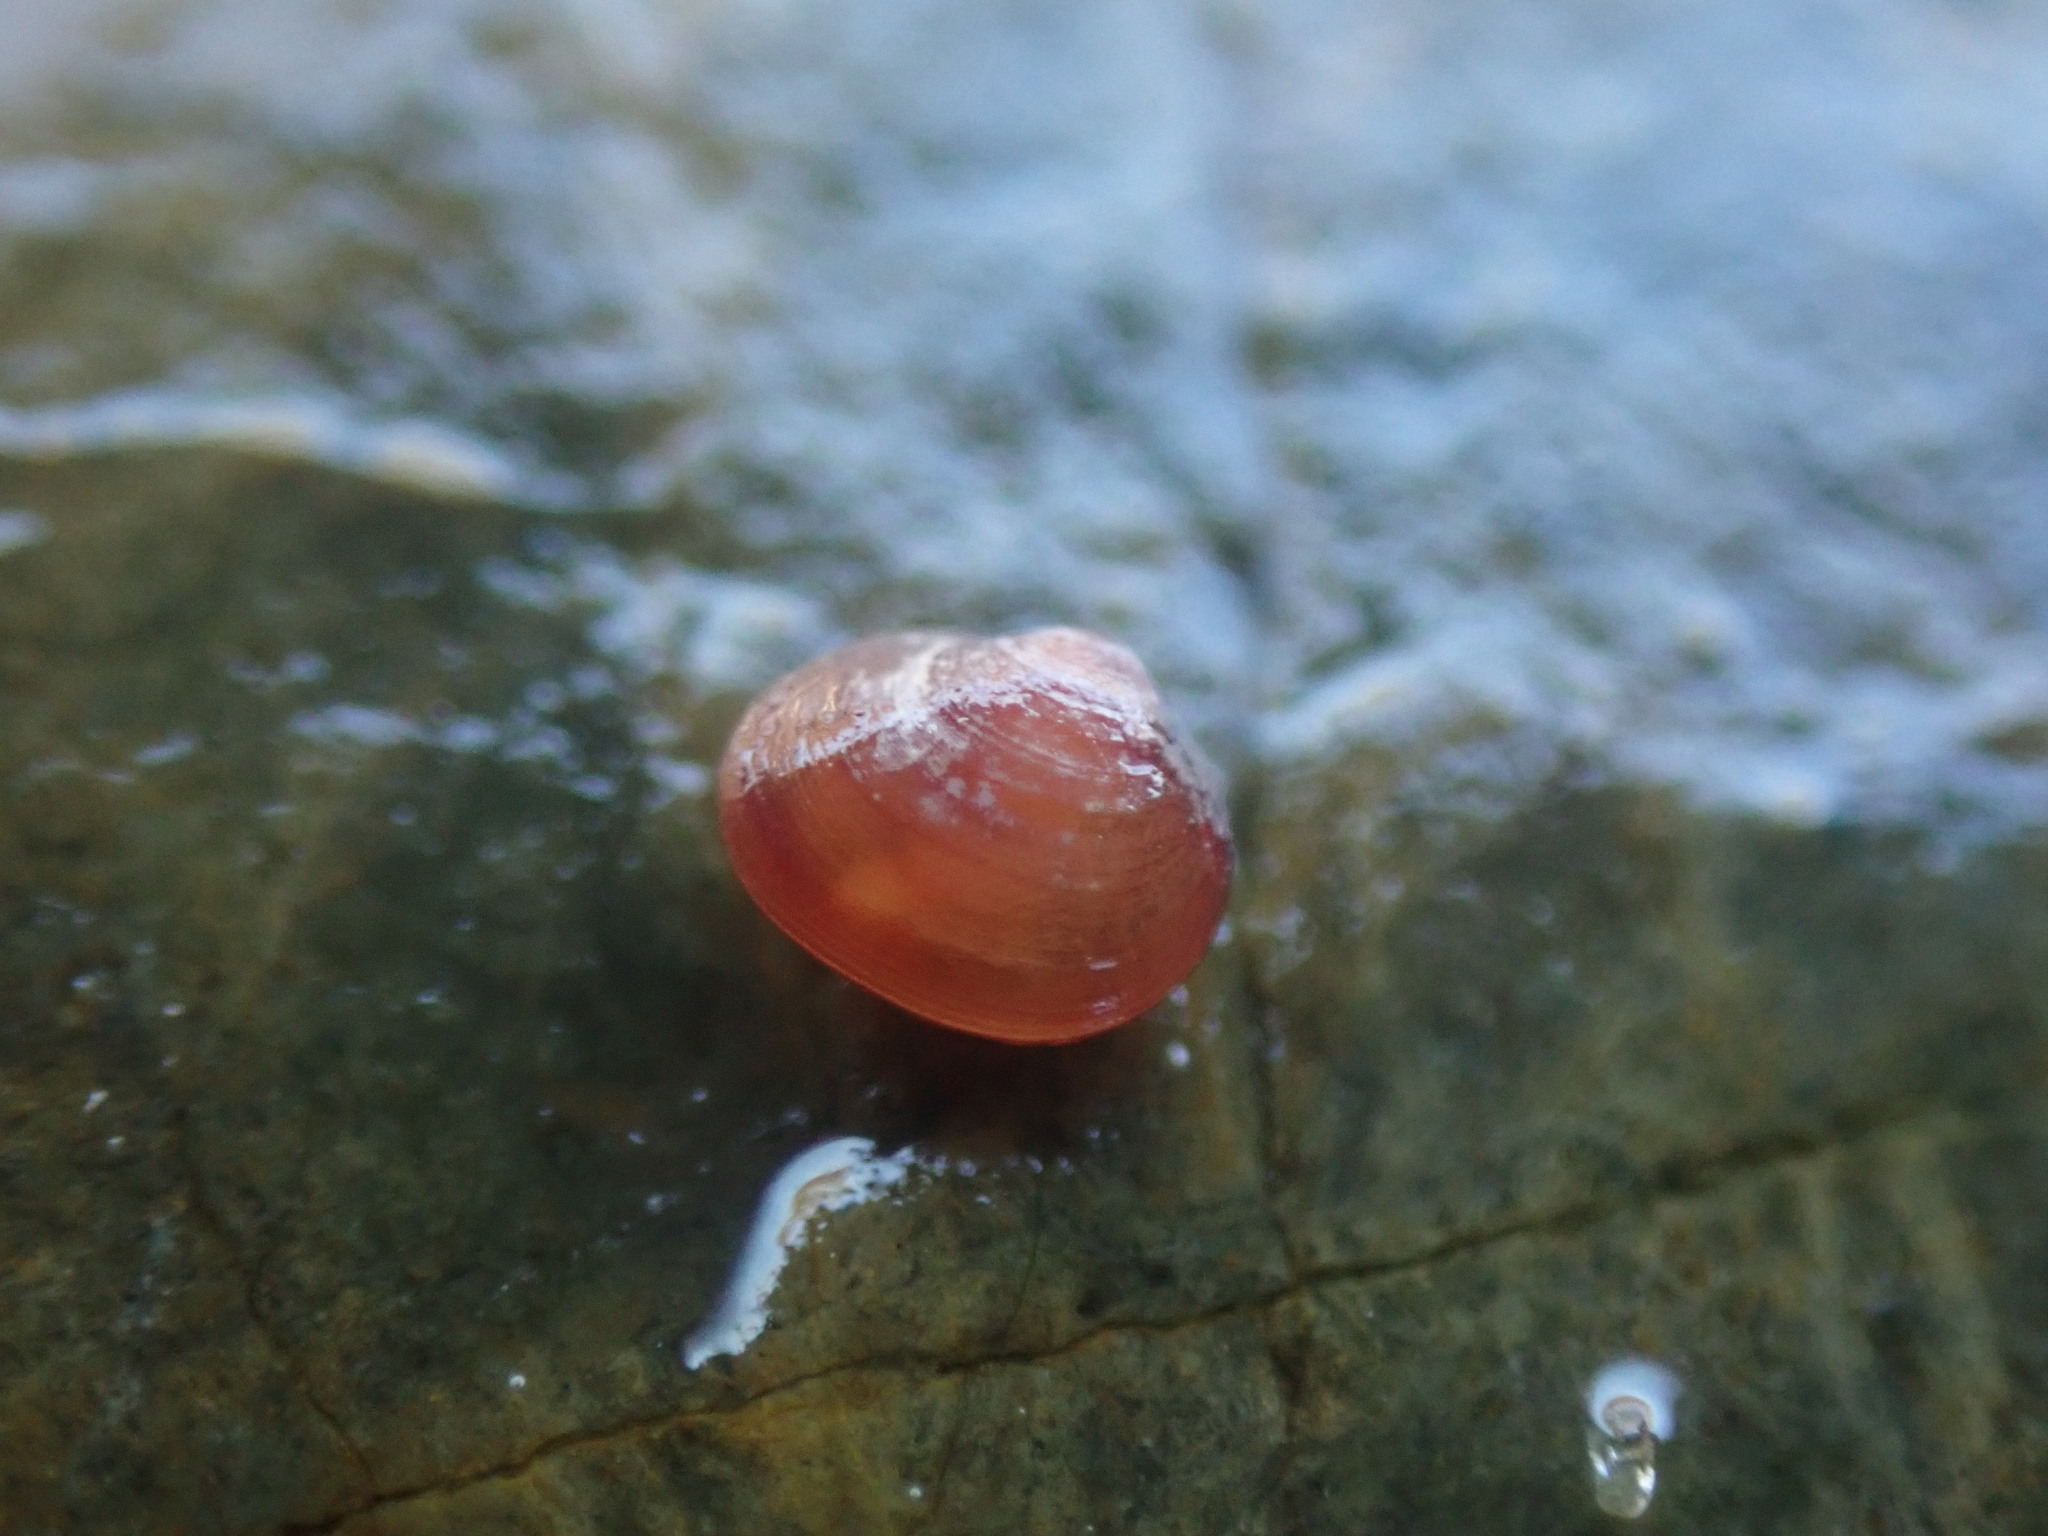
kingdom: Animalia
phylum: Mollusca
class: Bivalvia
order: Galeommatida
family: Lasaeidae
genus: Lasaea
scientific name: Lasaea hinemoa
